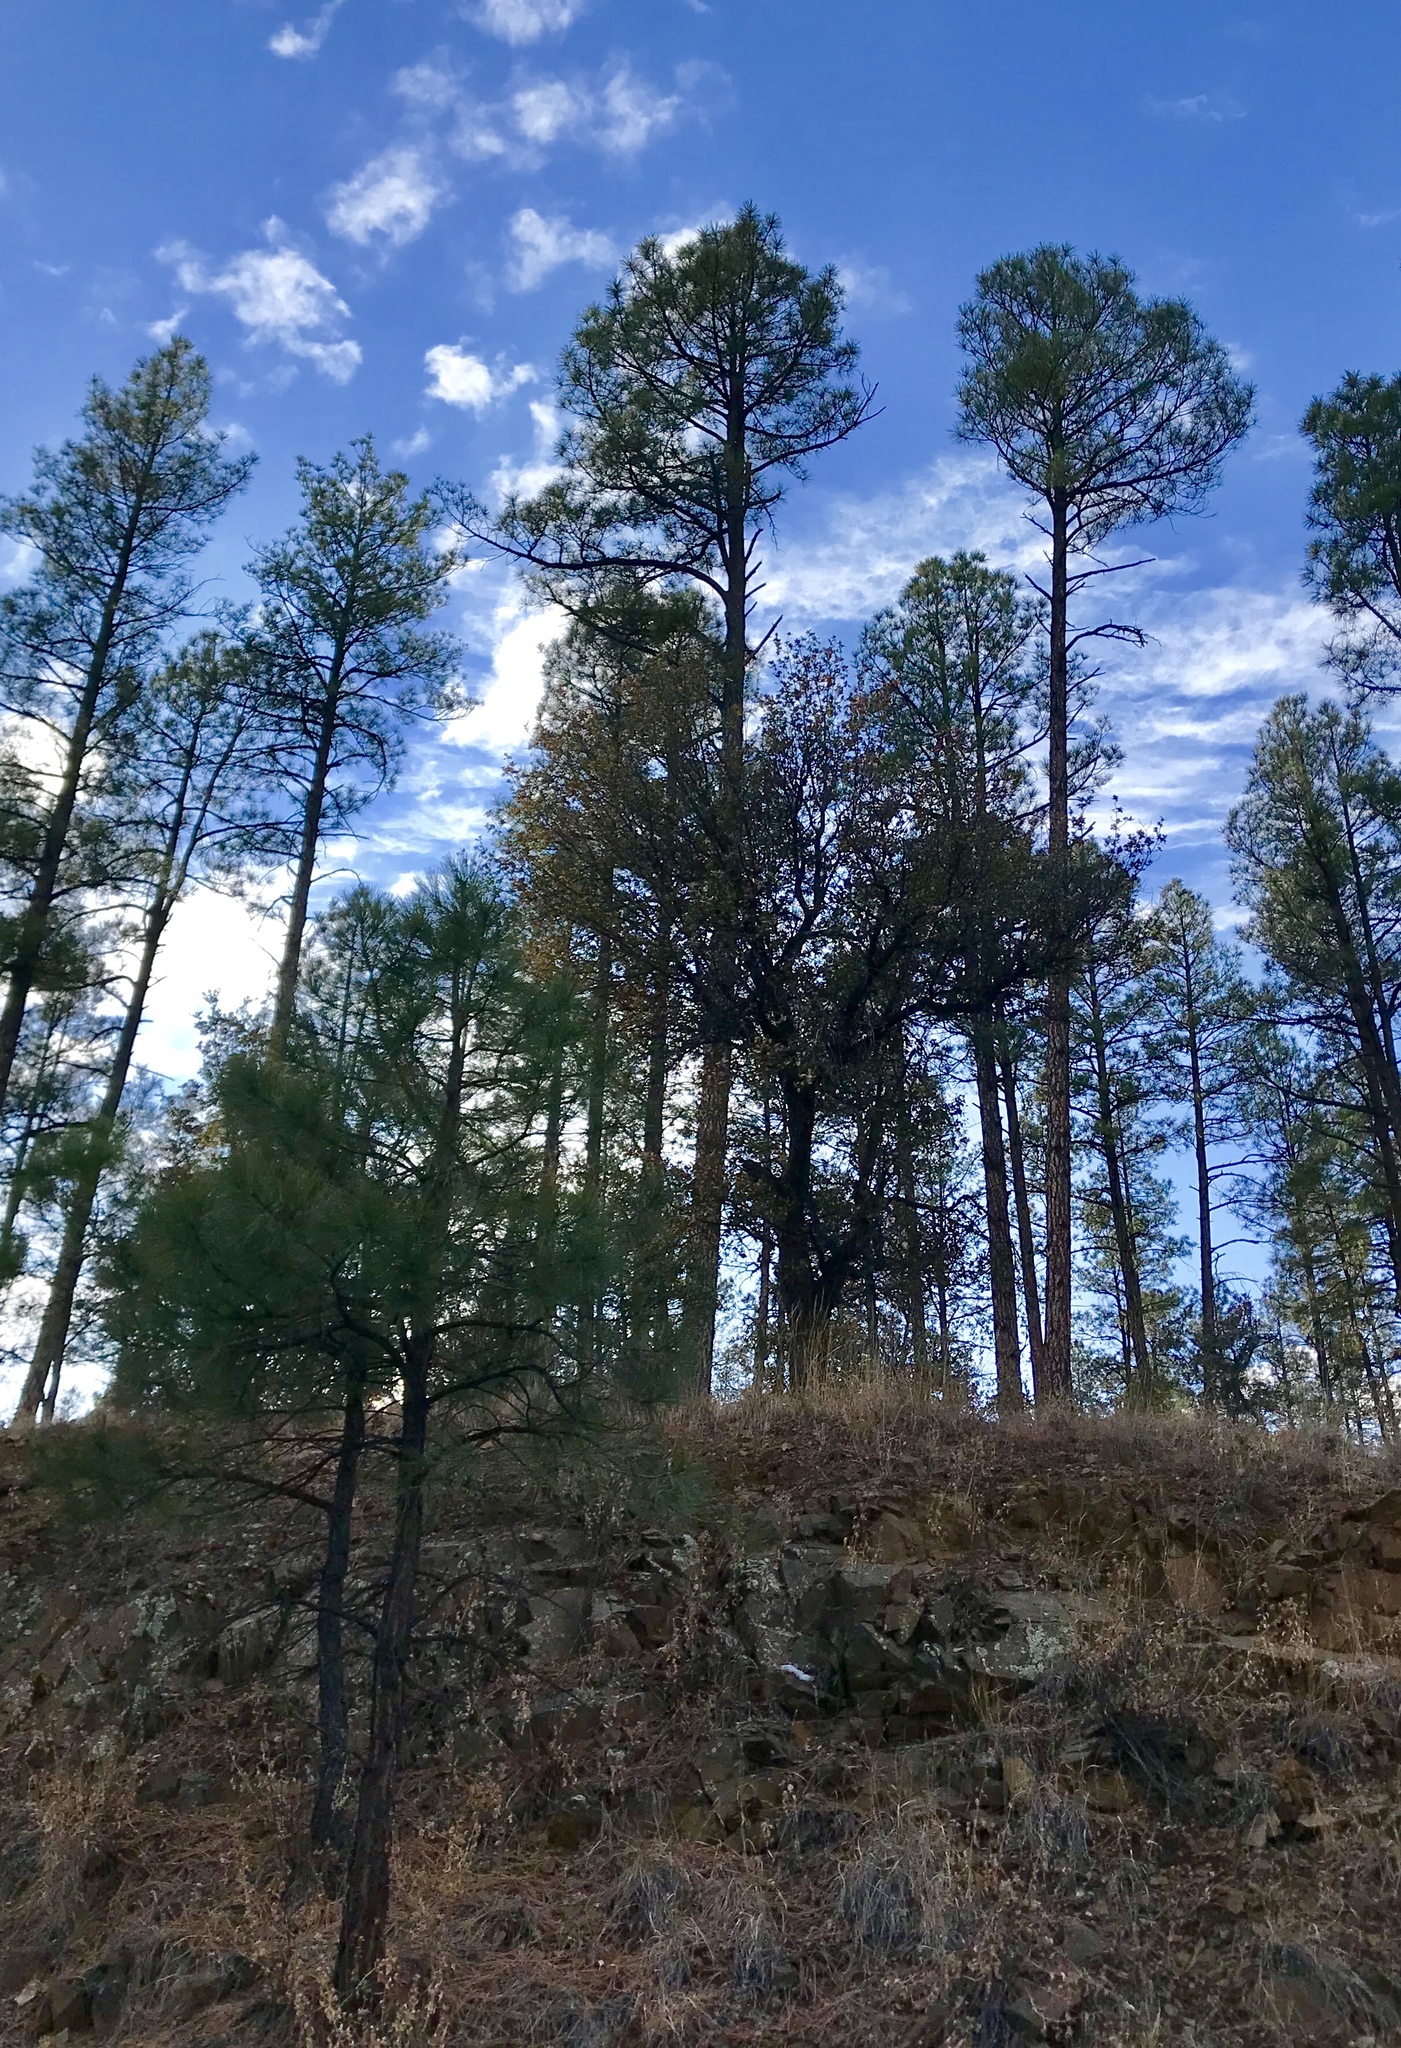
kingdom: Plantae
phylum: Tracheophyta
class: Pinopsida
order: Pinales
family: Pinaceae
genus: Pinus
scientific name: Pinus ponderosa
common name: Western yellow-pine
